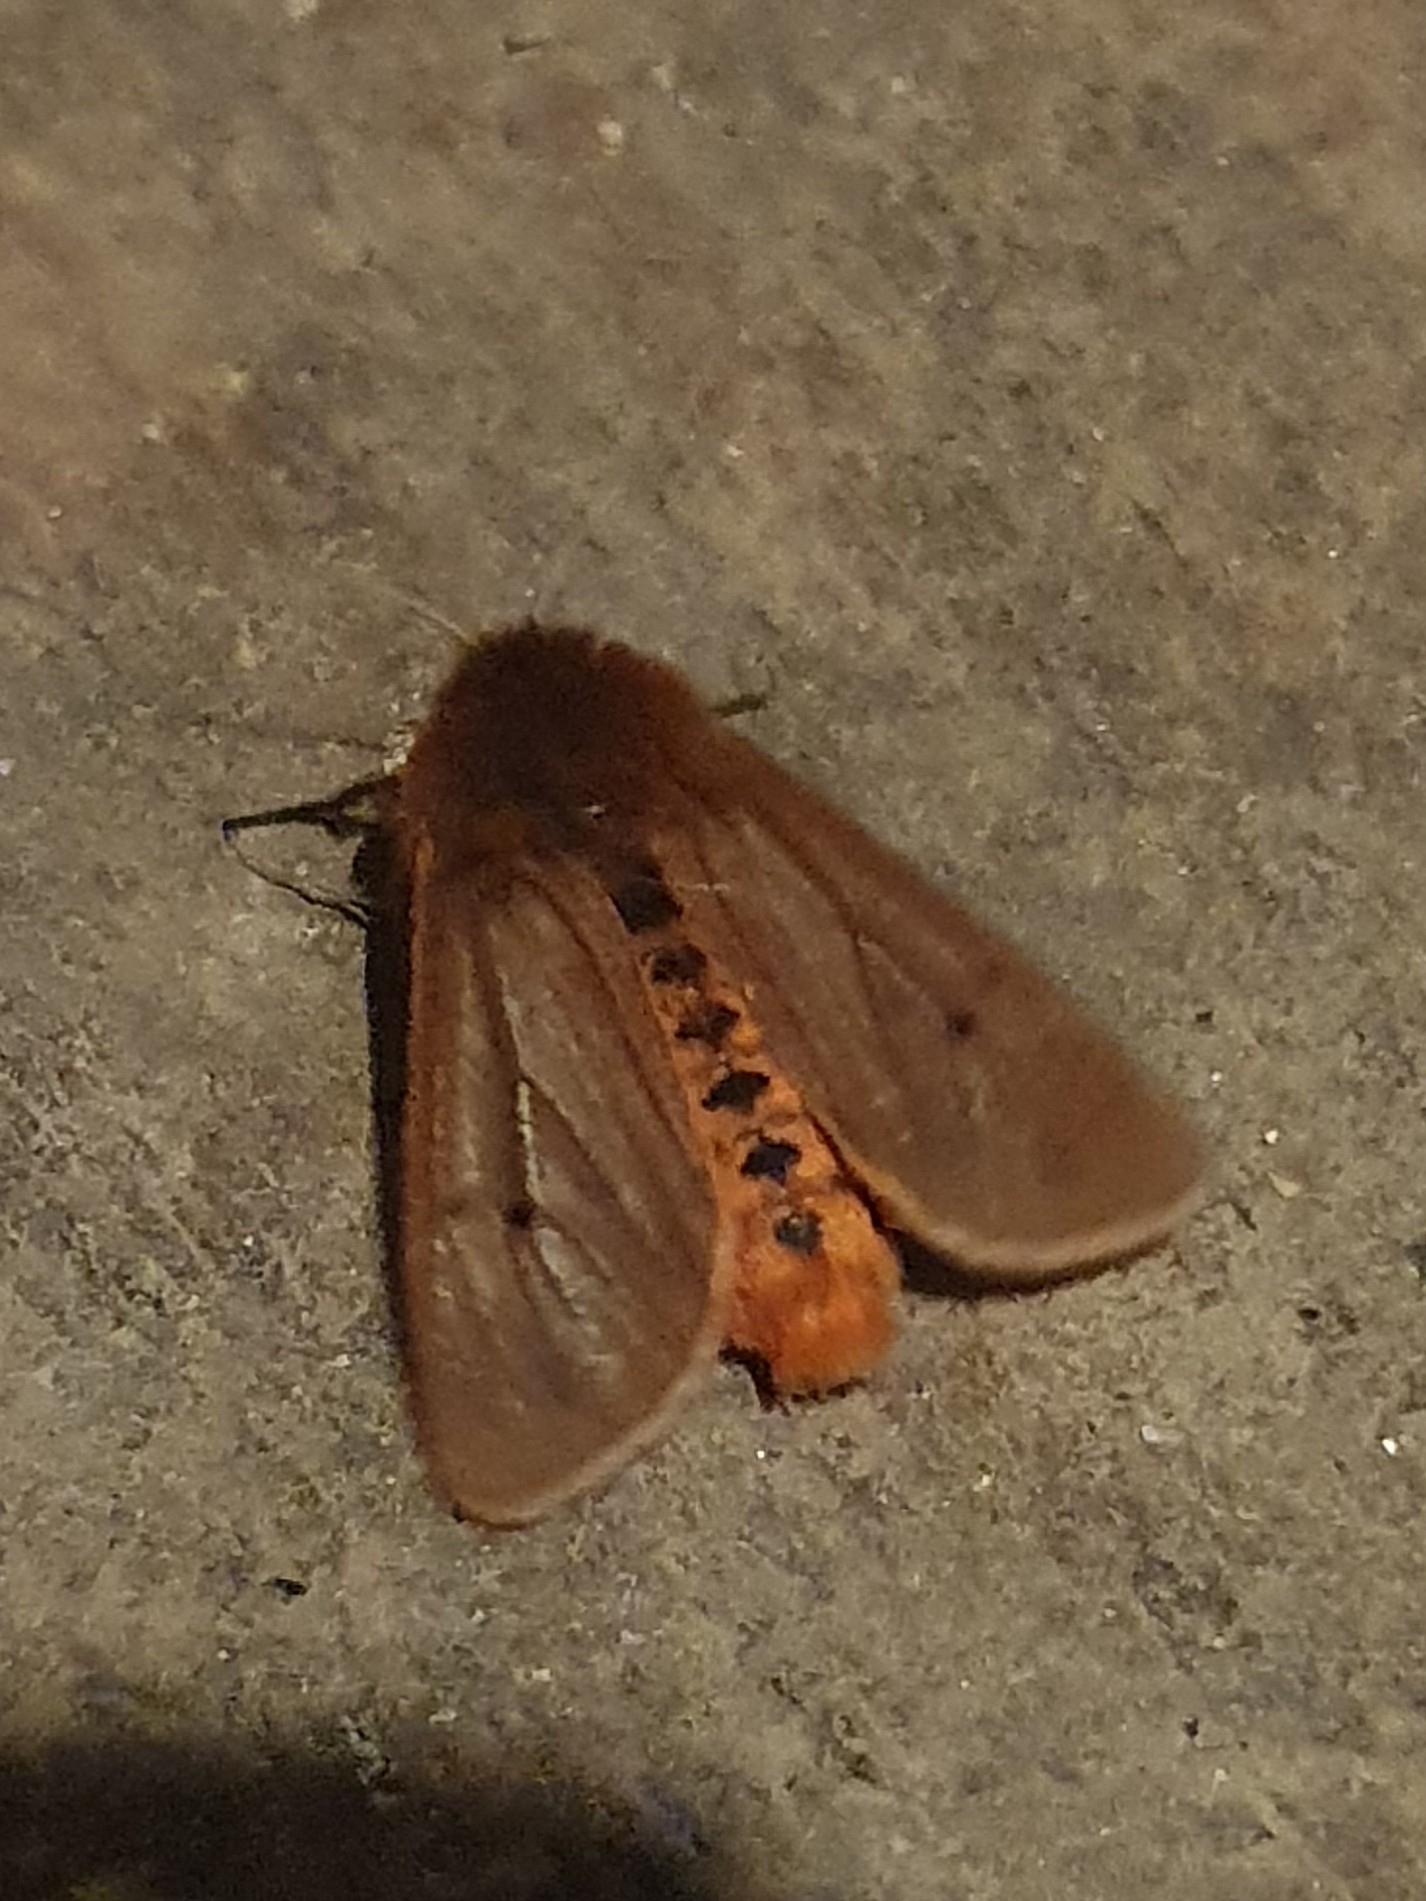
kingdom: Animalia
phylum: Arthropoda
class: Insecta
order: Lepidoptera
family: Erebidae
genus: Phragmatobia
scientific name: Phragmatobia fuliginosa
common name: Ruby tiger
